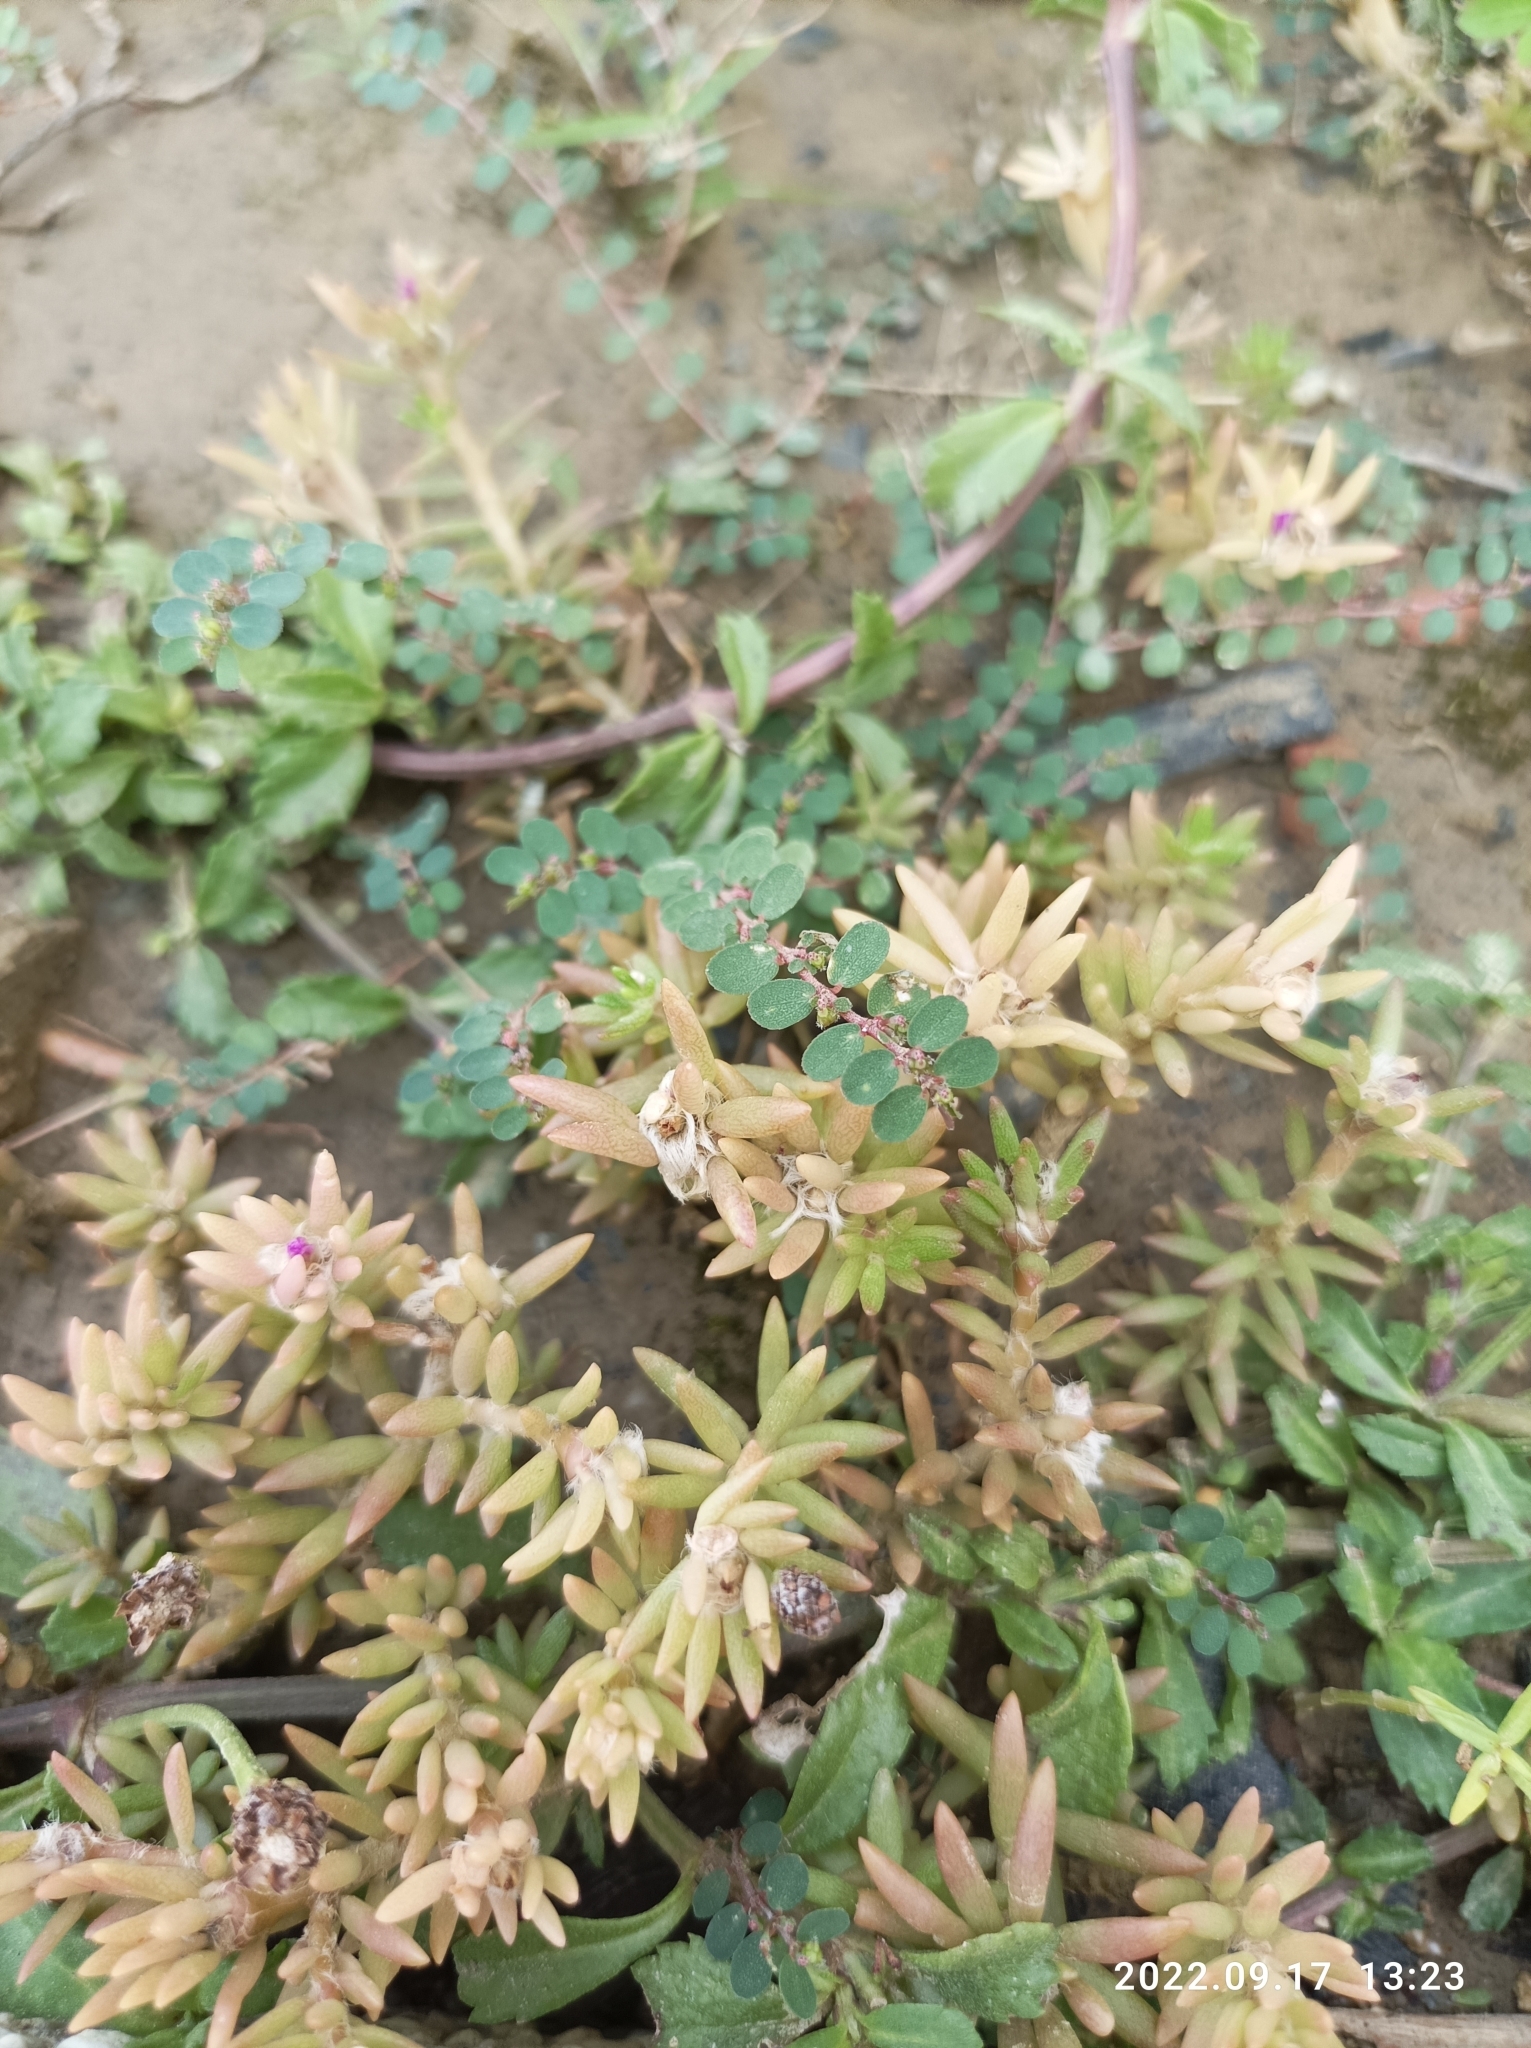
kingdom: Plantae
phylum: Tracheophyta
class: Magnoliopsida
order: Caryophyllales
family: Portulacaceae
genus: Portulaca
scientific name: Portulaca pilosa
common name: Kiss me quick
